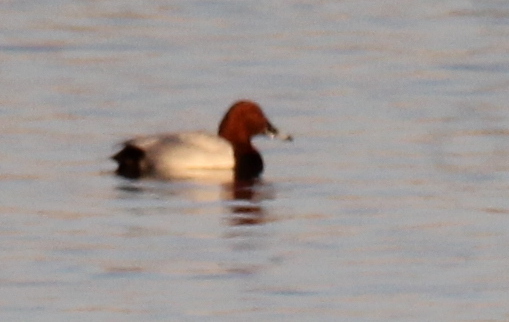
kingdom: Animalia
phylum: Chordata
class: Aves
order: Anseriformes
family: Anatidae
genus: Aythya
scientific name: Aythya ferina
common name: Common pochard
